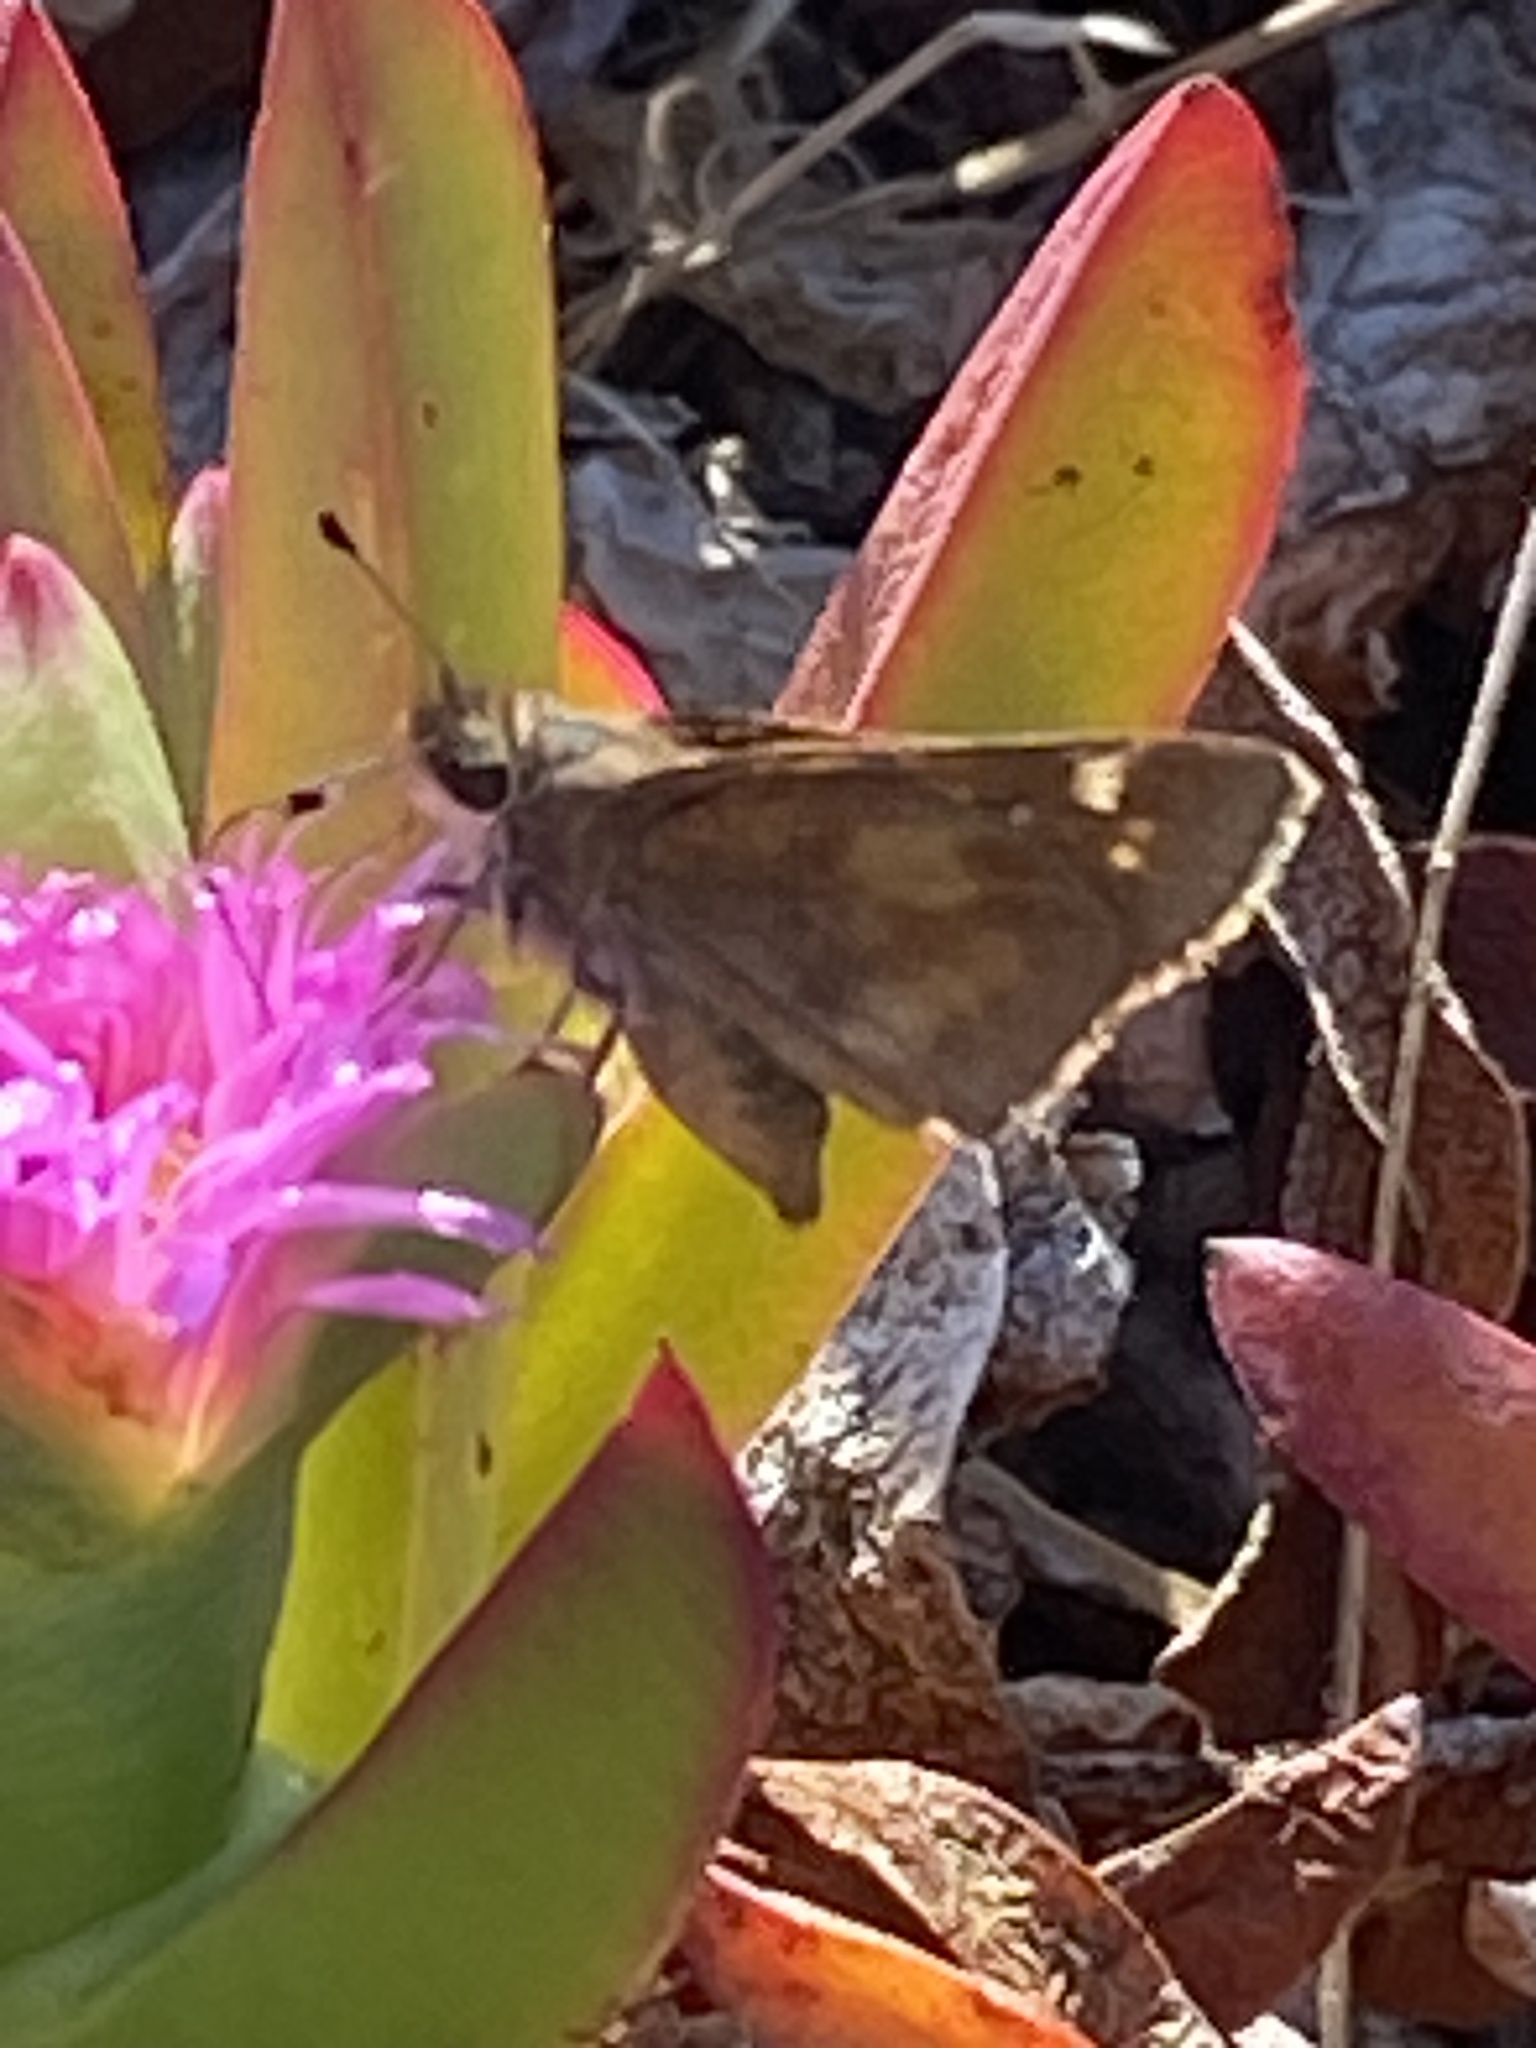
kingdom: Animalia
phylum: Arthropoda
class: Insecta
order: Lepidoptera
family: Hesperiidae
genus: Lon
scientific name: Lon melane
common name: Umber skipper
